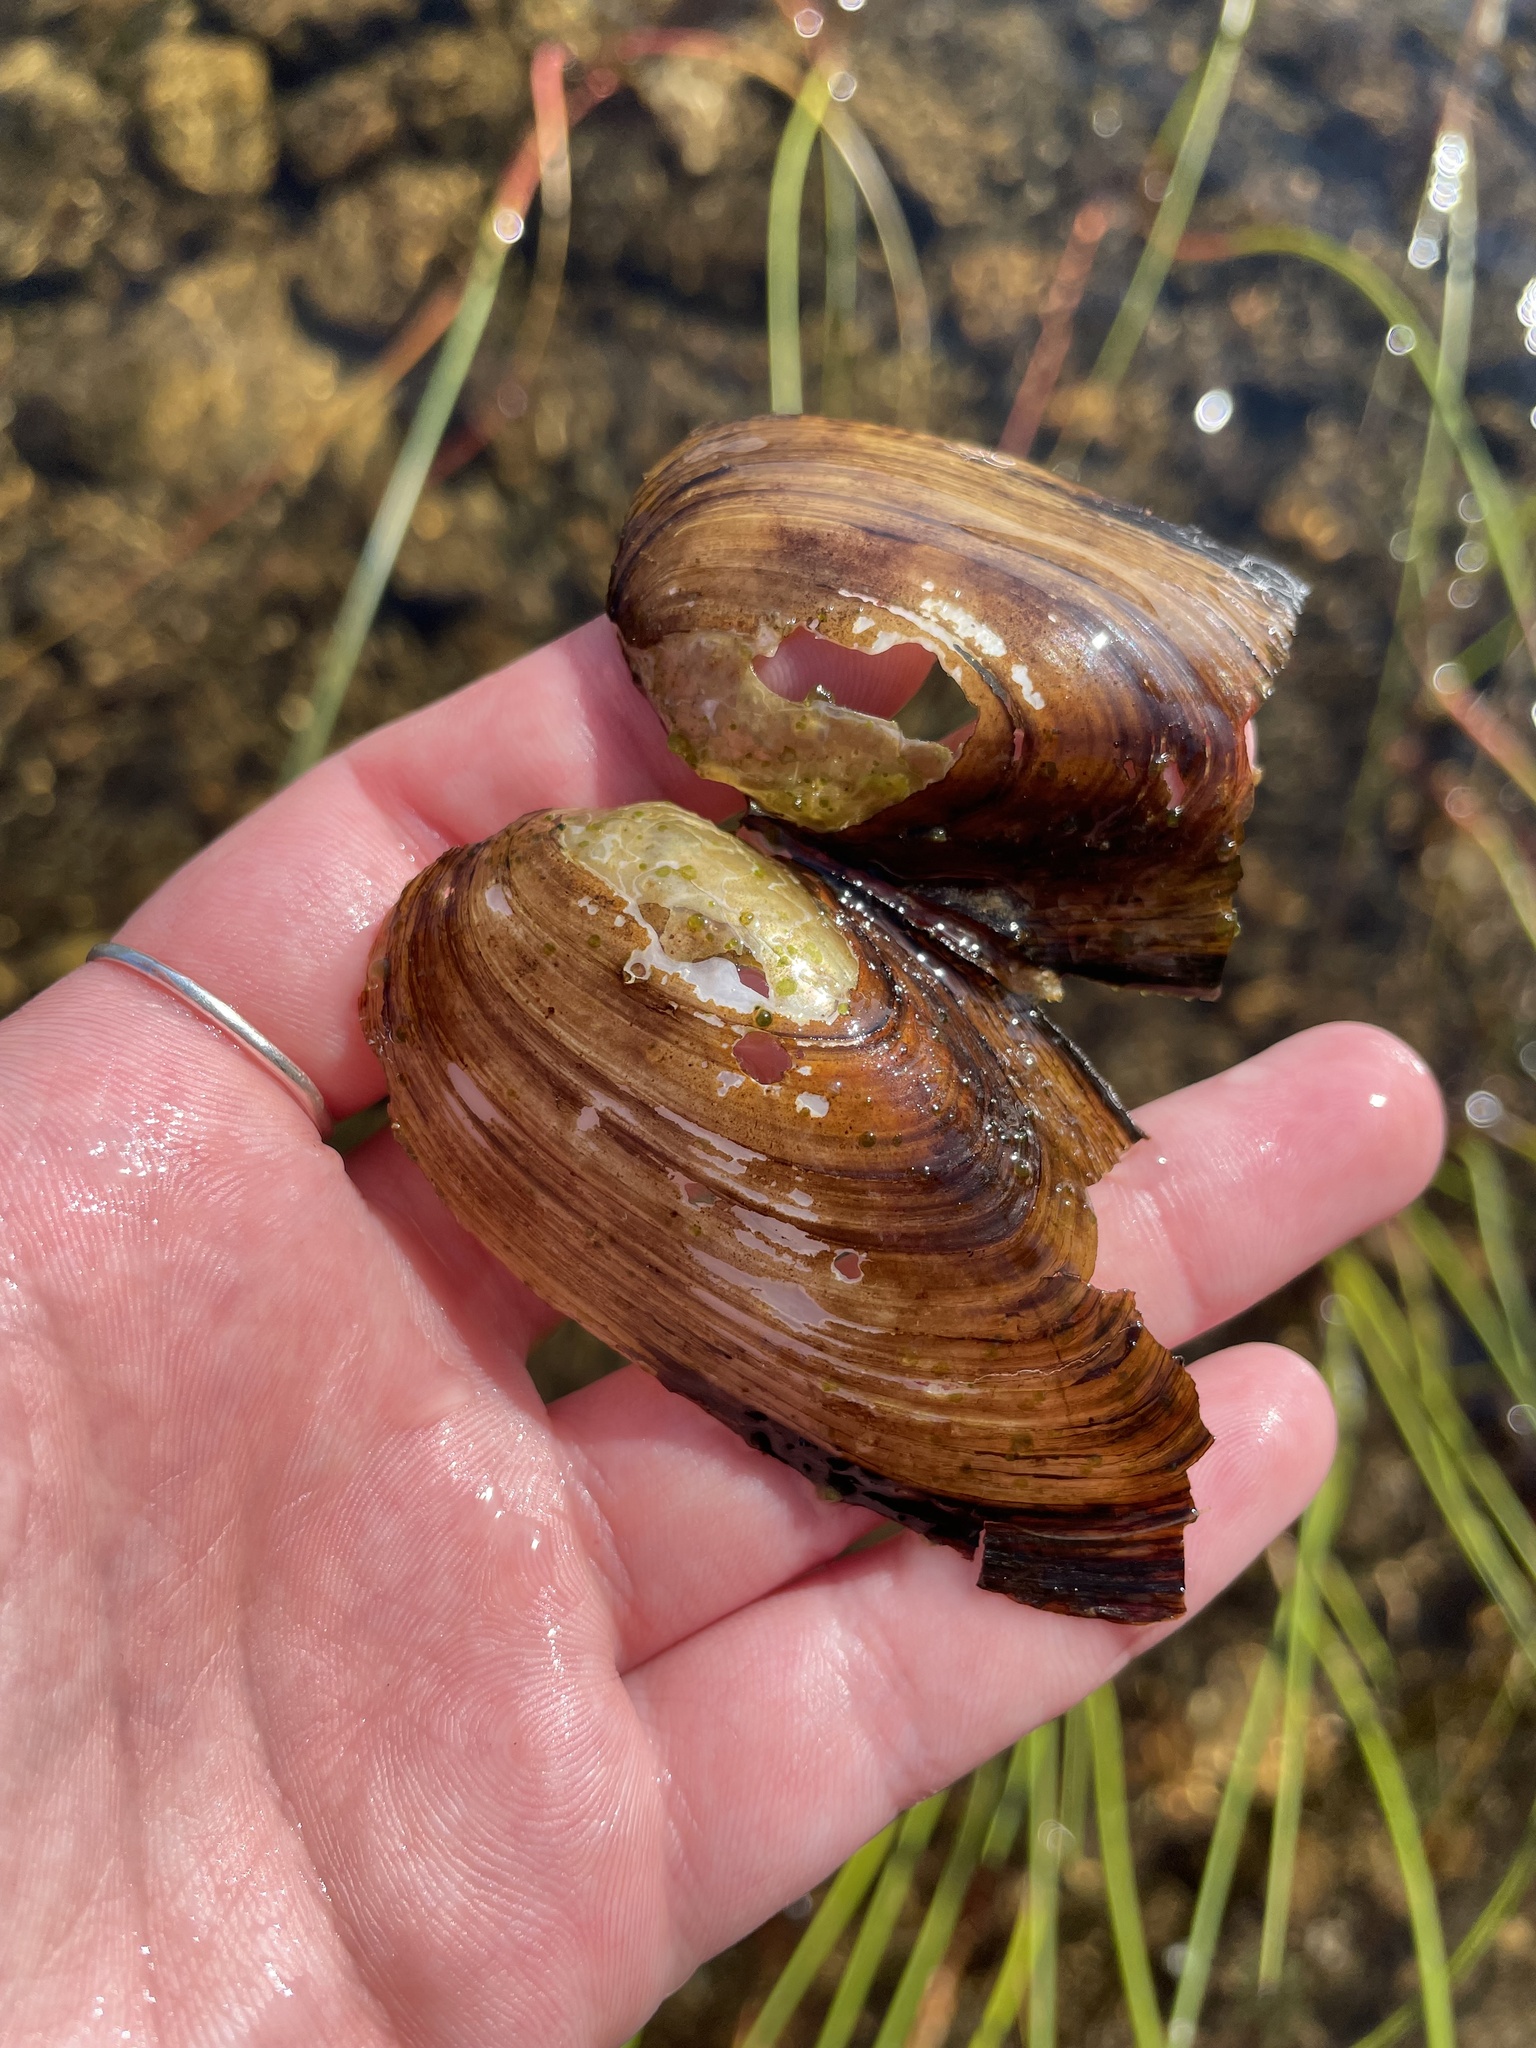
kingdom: Animalia
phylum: Mollusca
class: Bivalvia
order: Unionida
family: Unionidae
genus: Pyganodon
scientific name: Pyganodon cataracta
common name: Eastern floater
